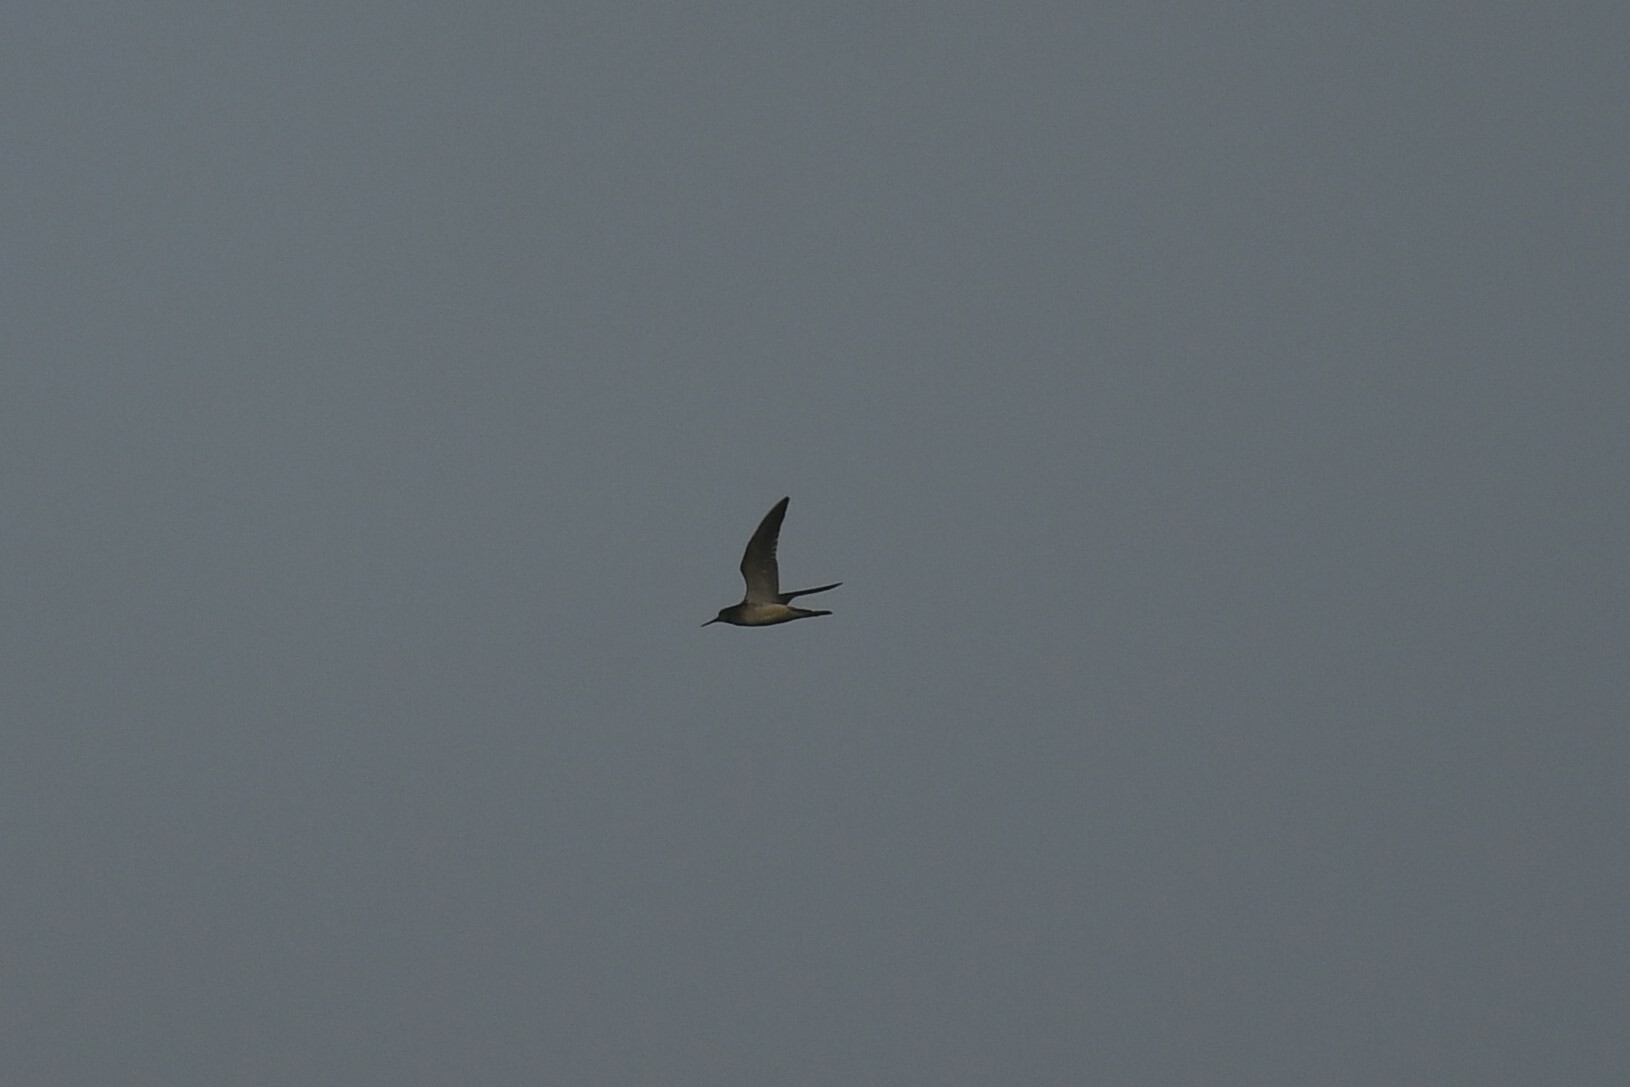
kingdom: Animalia
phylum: Chordata
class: Aves
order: Charadriiformes
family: Scolopacidae
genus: Tringa
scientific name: Tringa solitaria
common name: Solitary sandpiper
